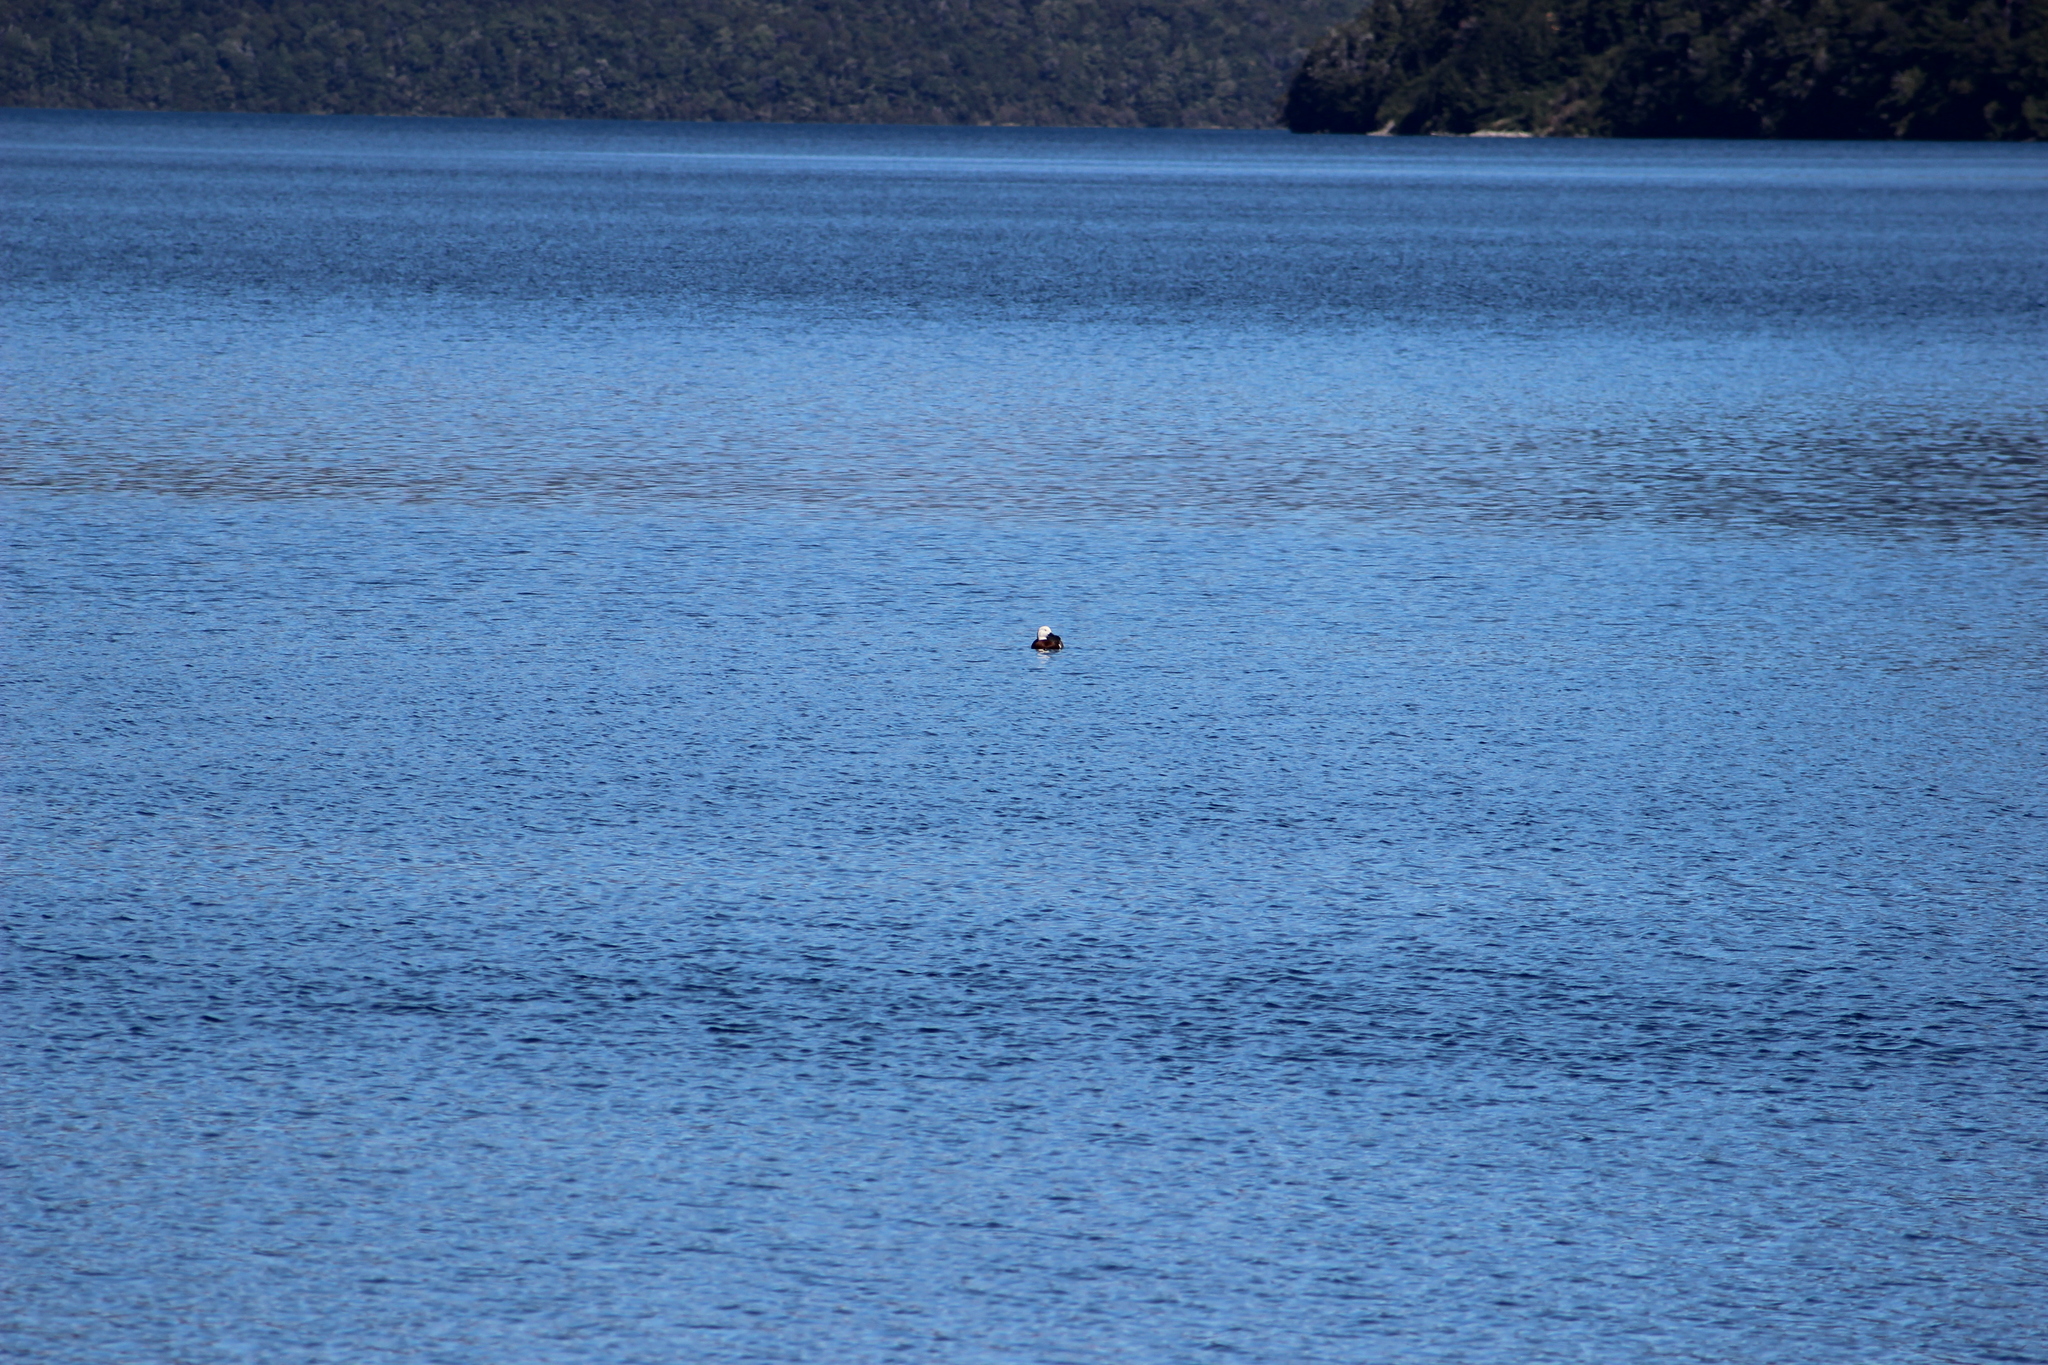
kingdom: Animalia
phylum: Chordata
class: Aves
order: Anseriformes
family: Anatidae
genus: Tadorna
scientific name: Tadorna variegata
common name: Paradise shelduck
